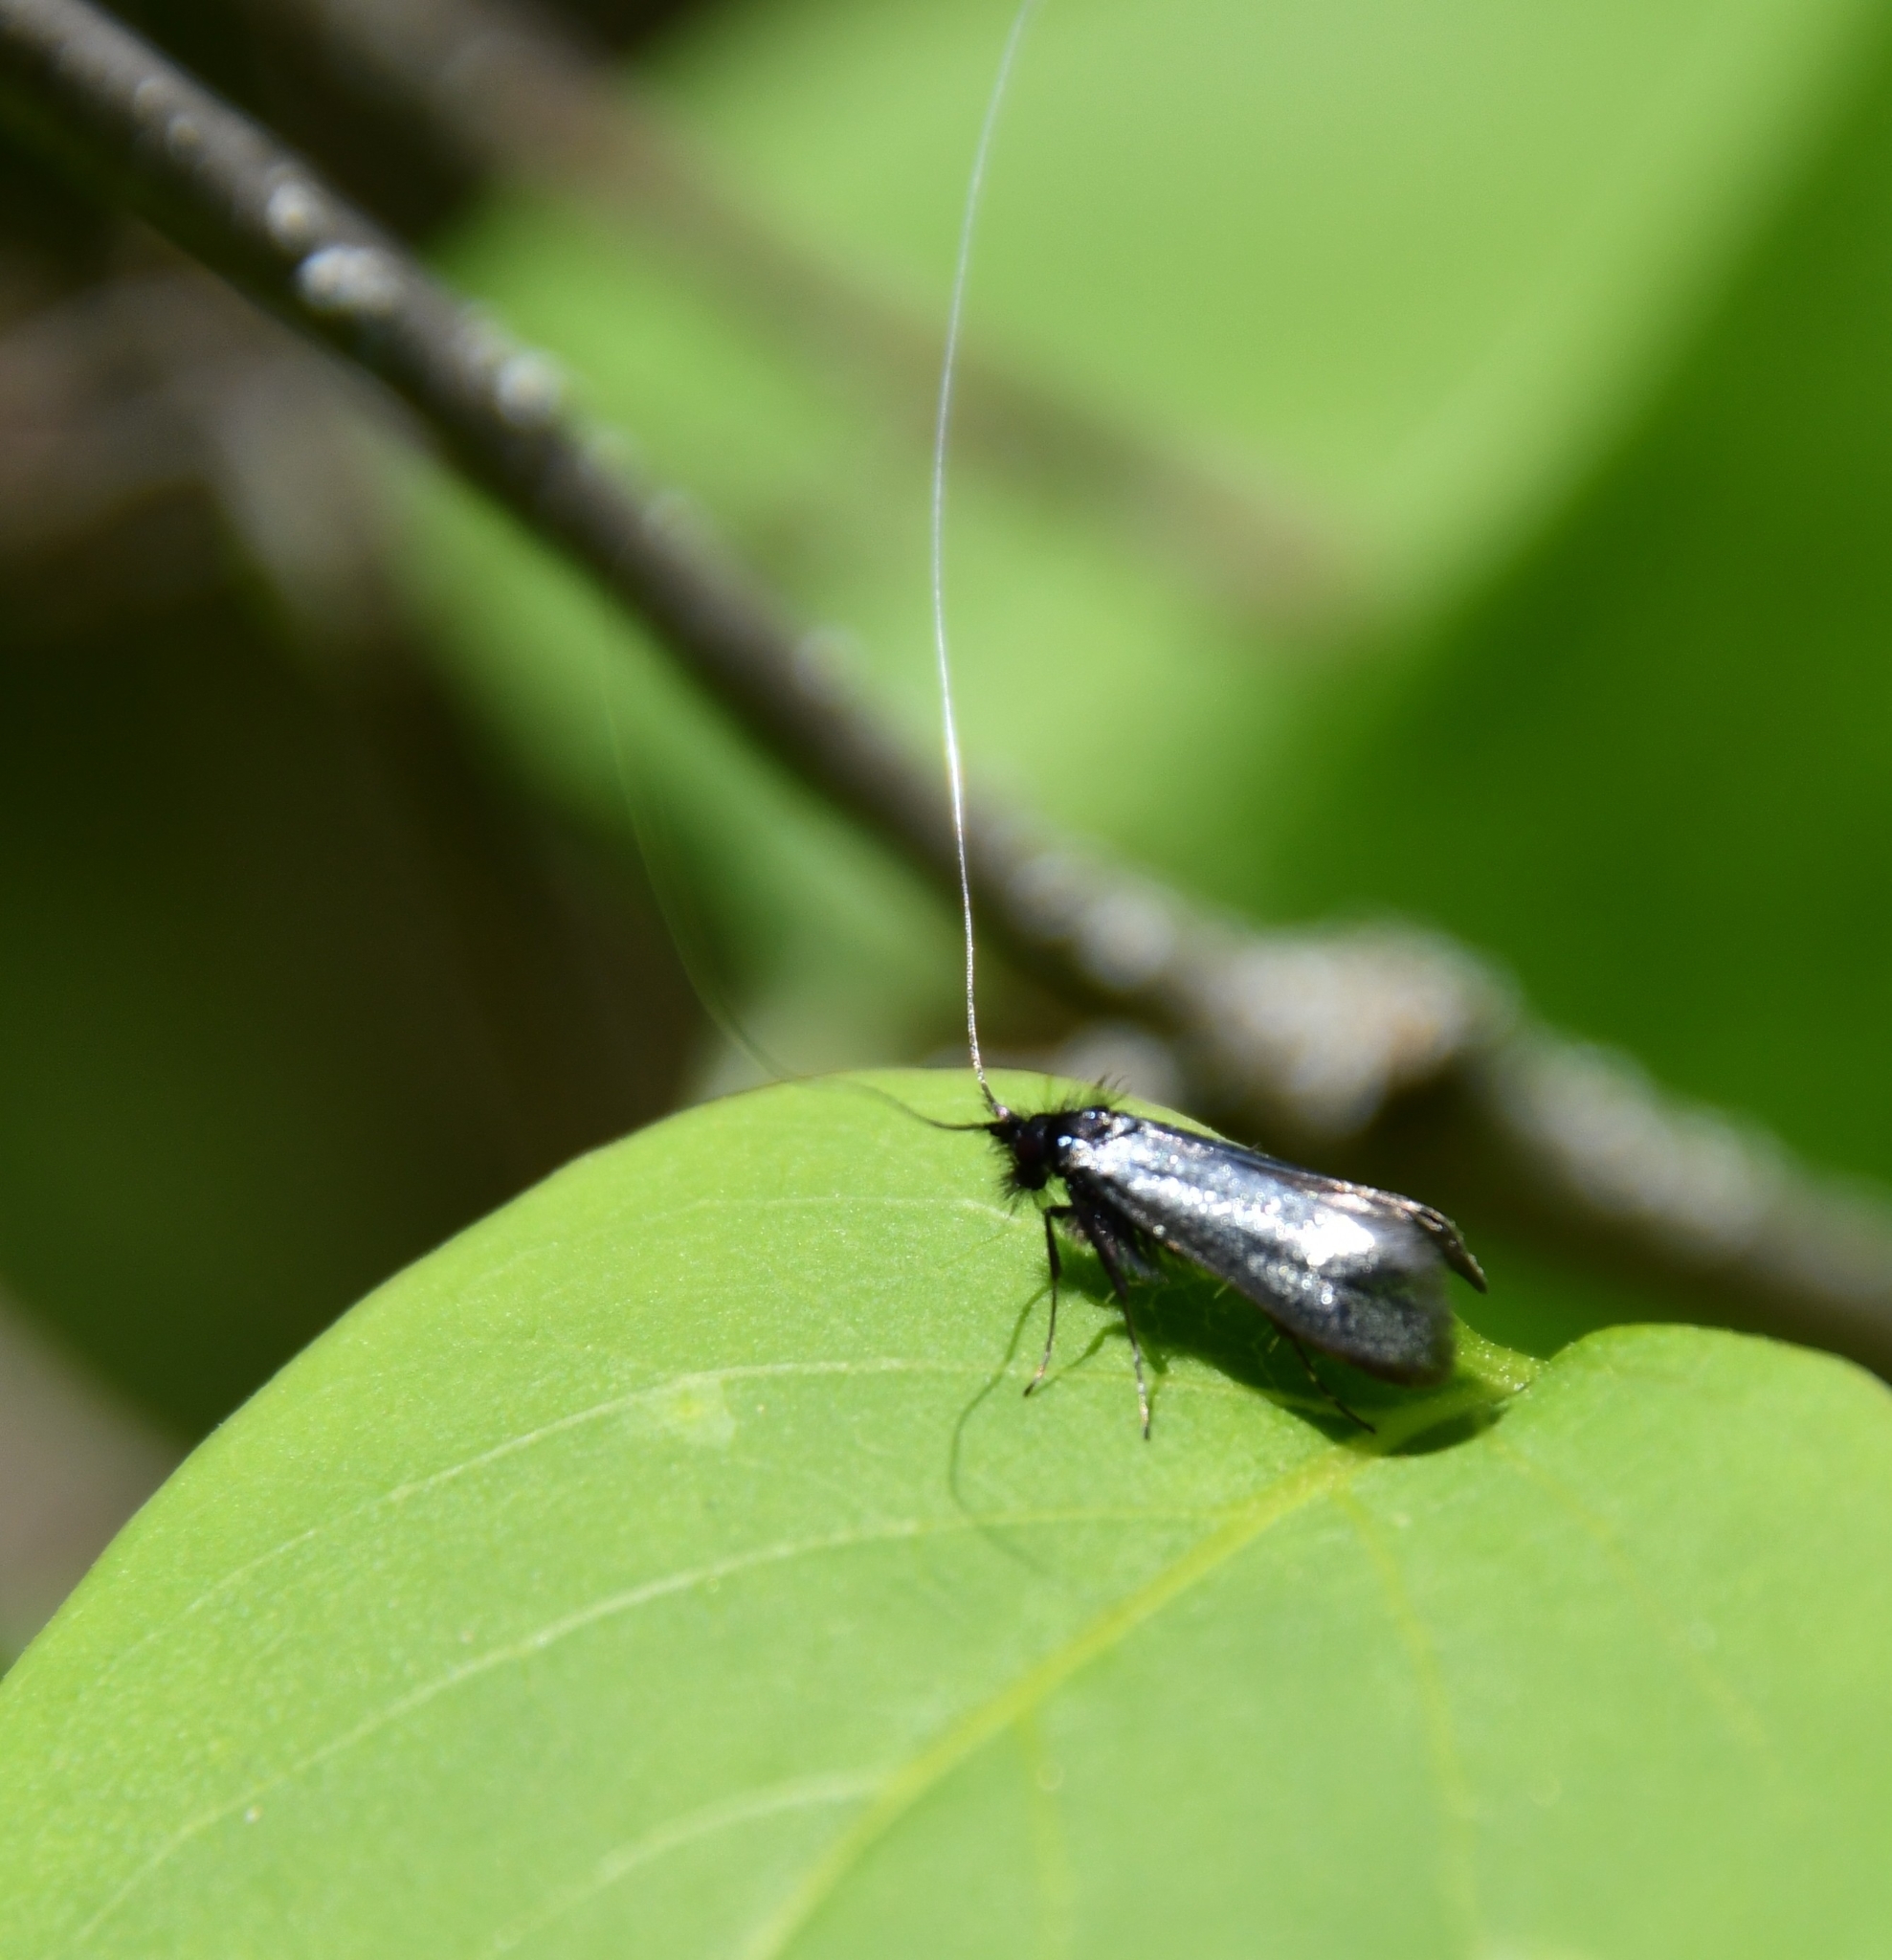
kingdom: Animalia
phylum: Arthropoda
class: Insecta
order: Lepidoptera
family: Adelidae
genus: Adela
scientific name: Adela viridella
